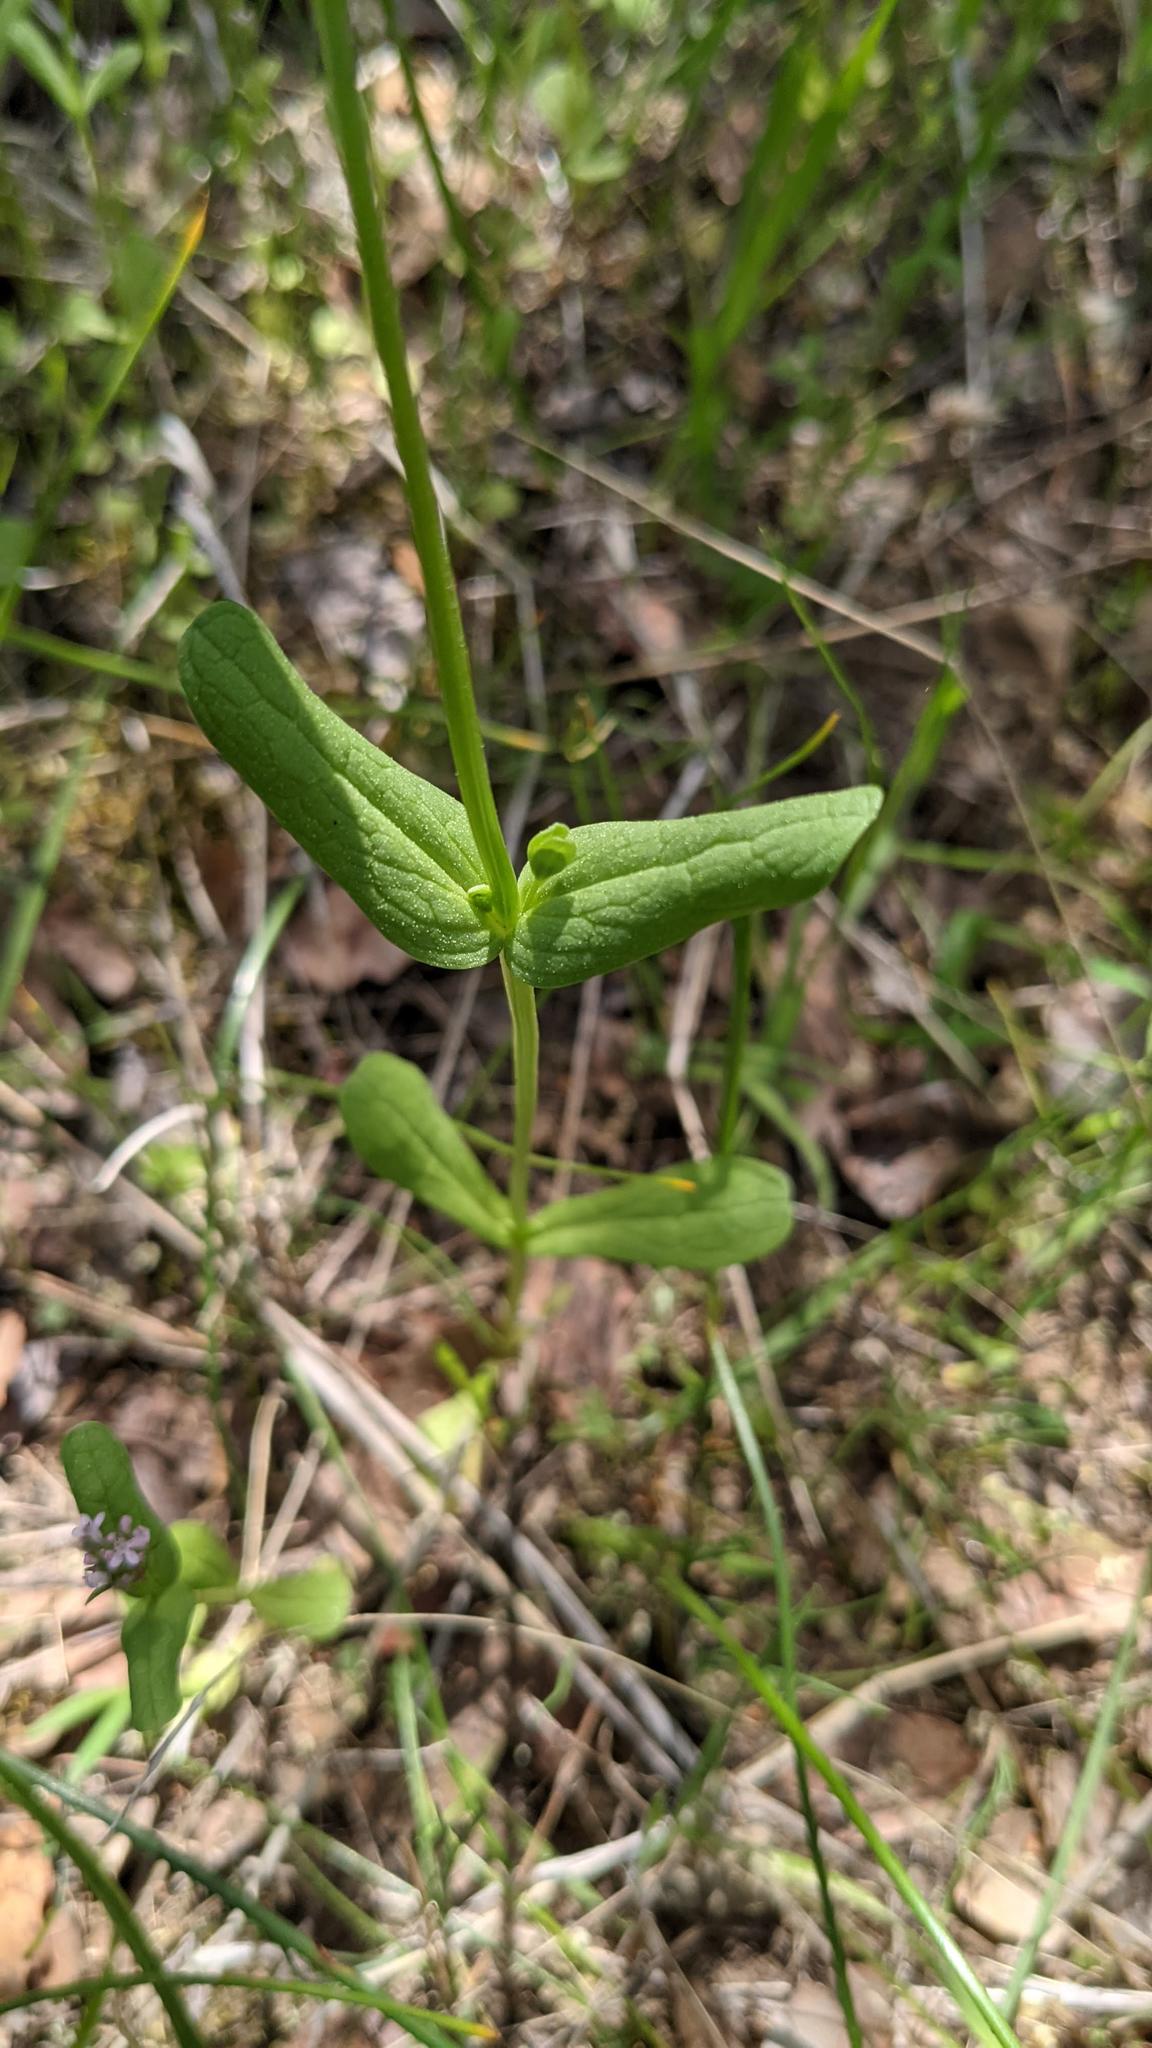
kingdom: Plantae
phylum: Tracheophyta
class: Magnoliopsida
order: Dipsacales
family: Caprifoliaceae
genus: Plectritis
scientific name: Plectritis ciliosa
